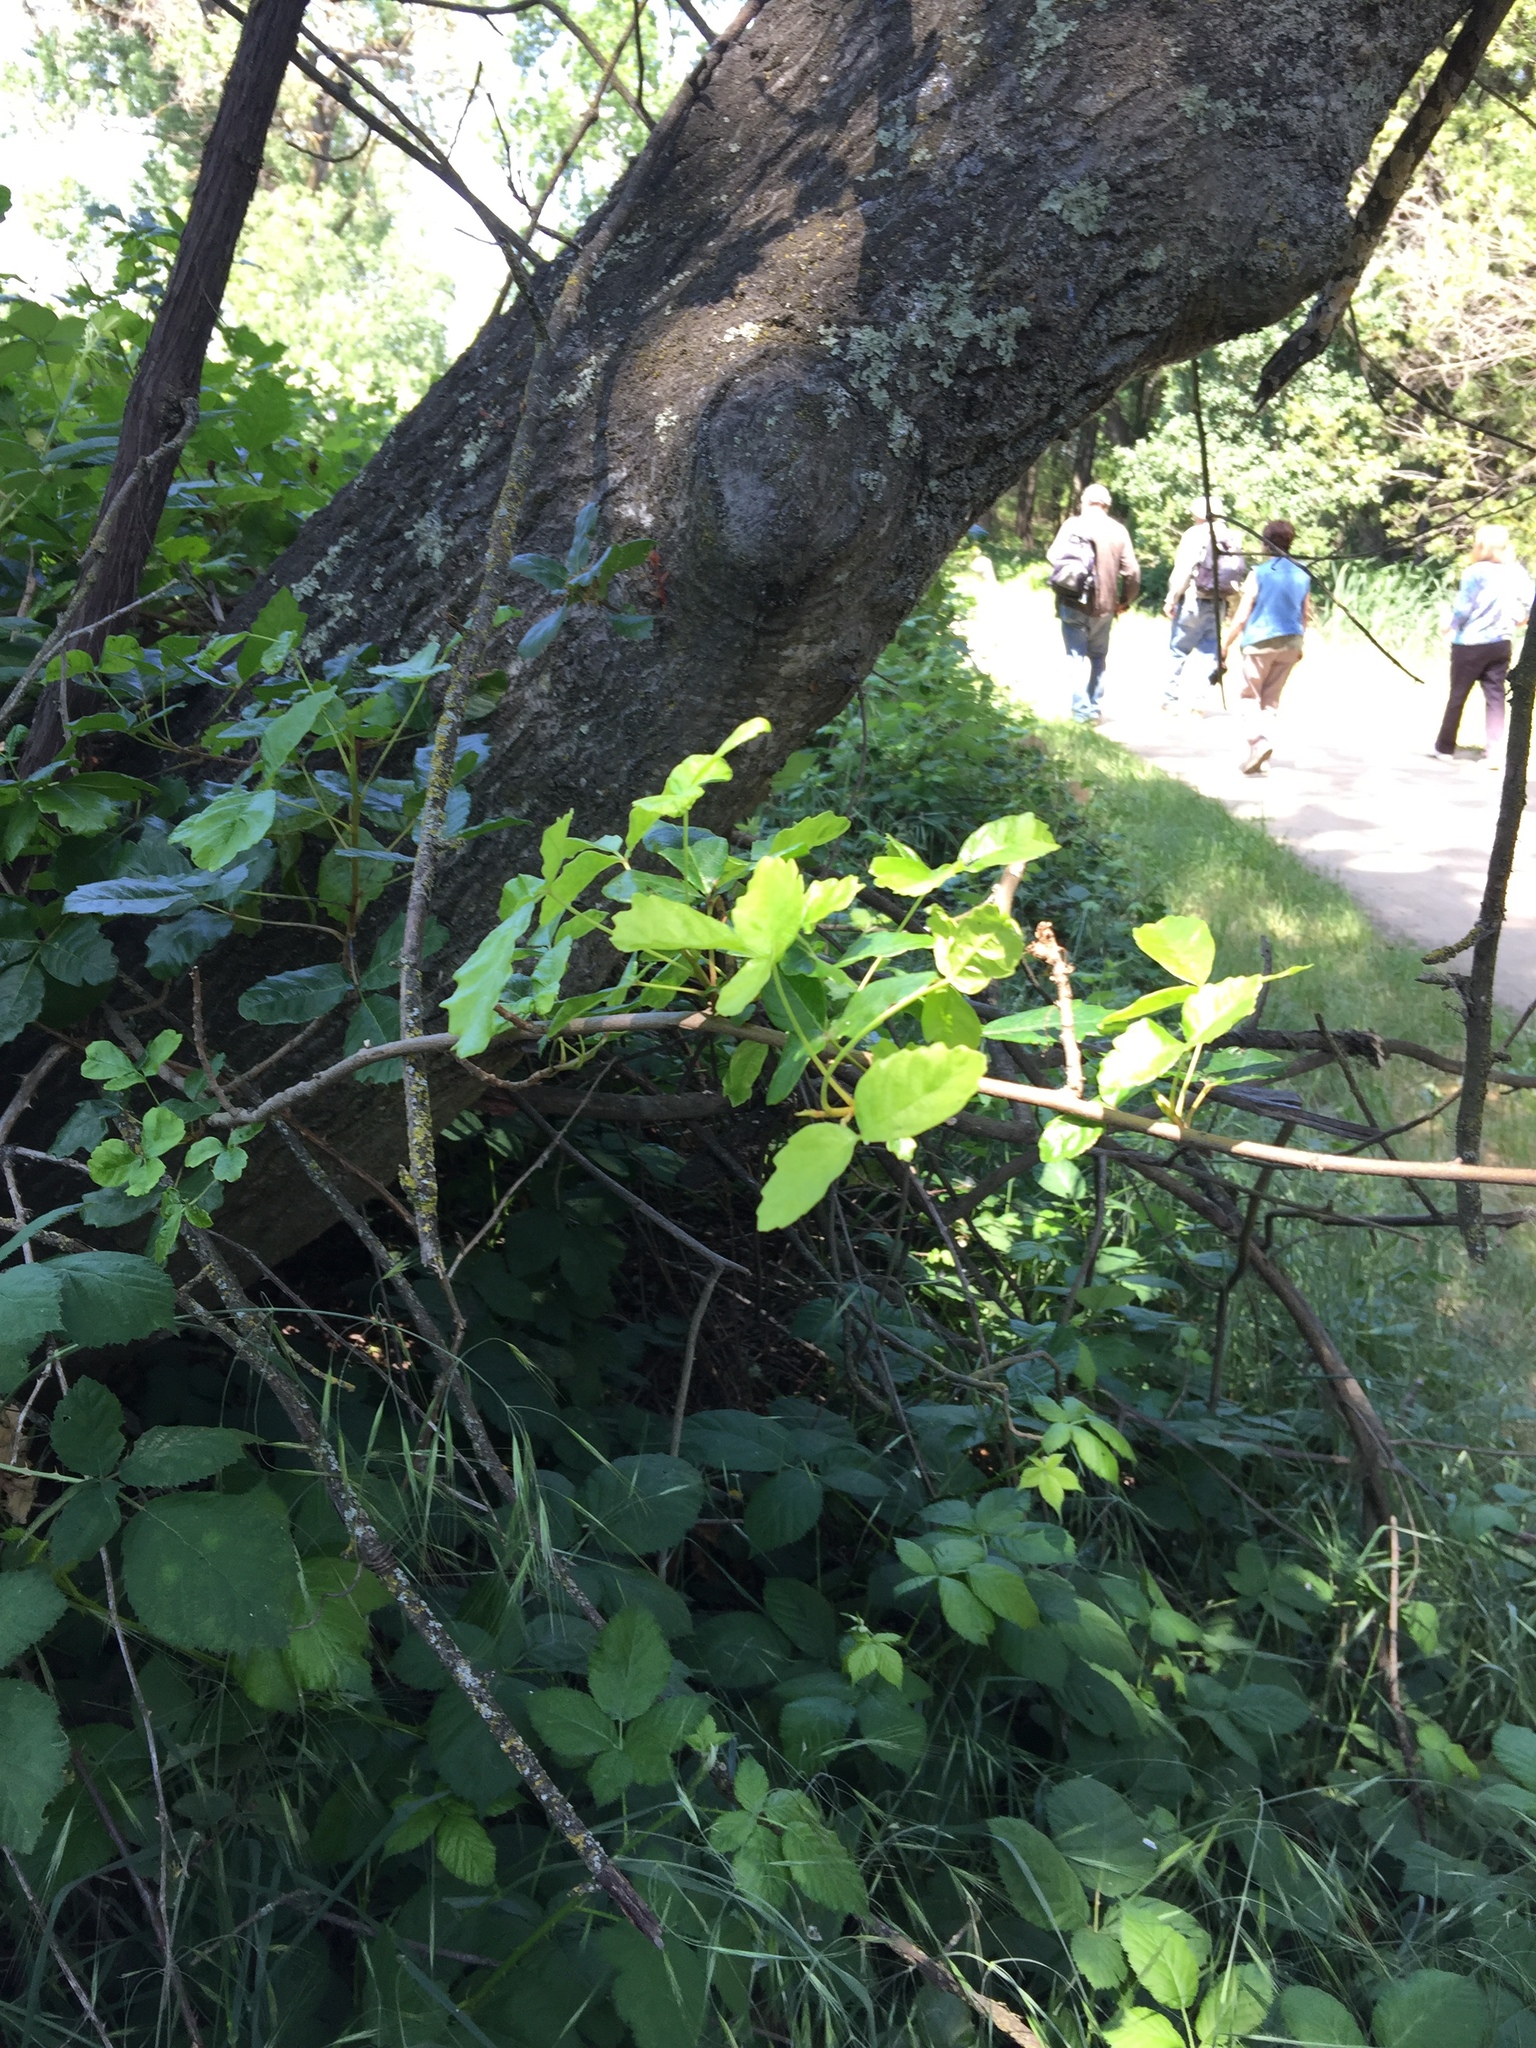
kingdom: Plantae
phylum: Tracheophyta
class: Magnoliopsida
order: Sapindales
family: Anacardiaceae
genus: Toxicodendron
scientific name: Toxicodendron diversilobum
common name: Pacific poison-oak
